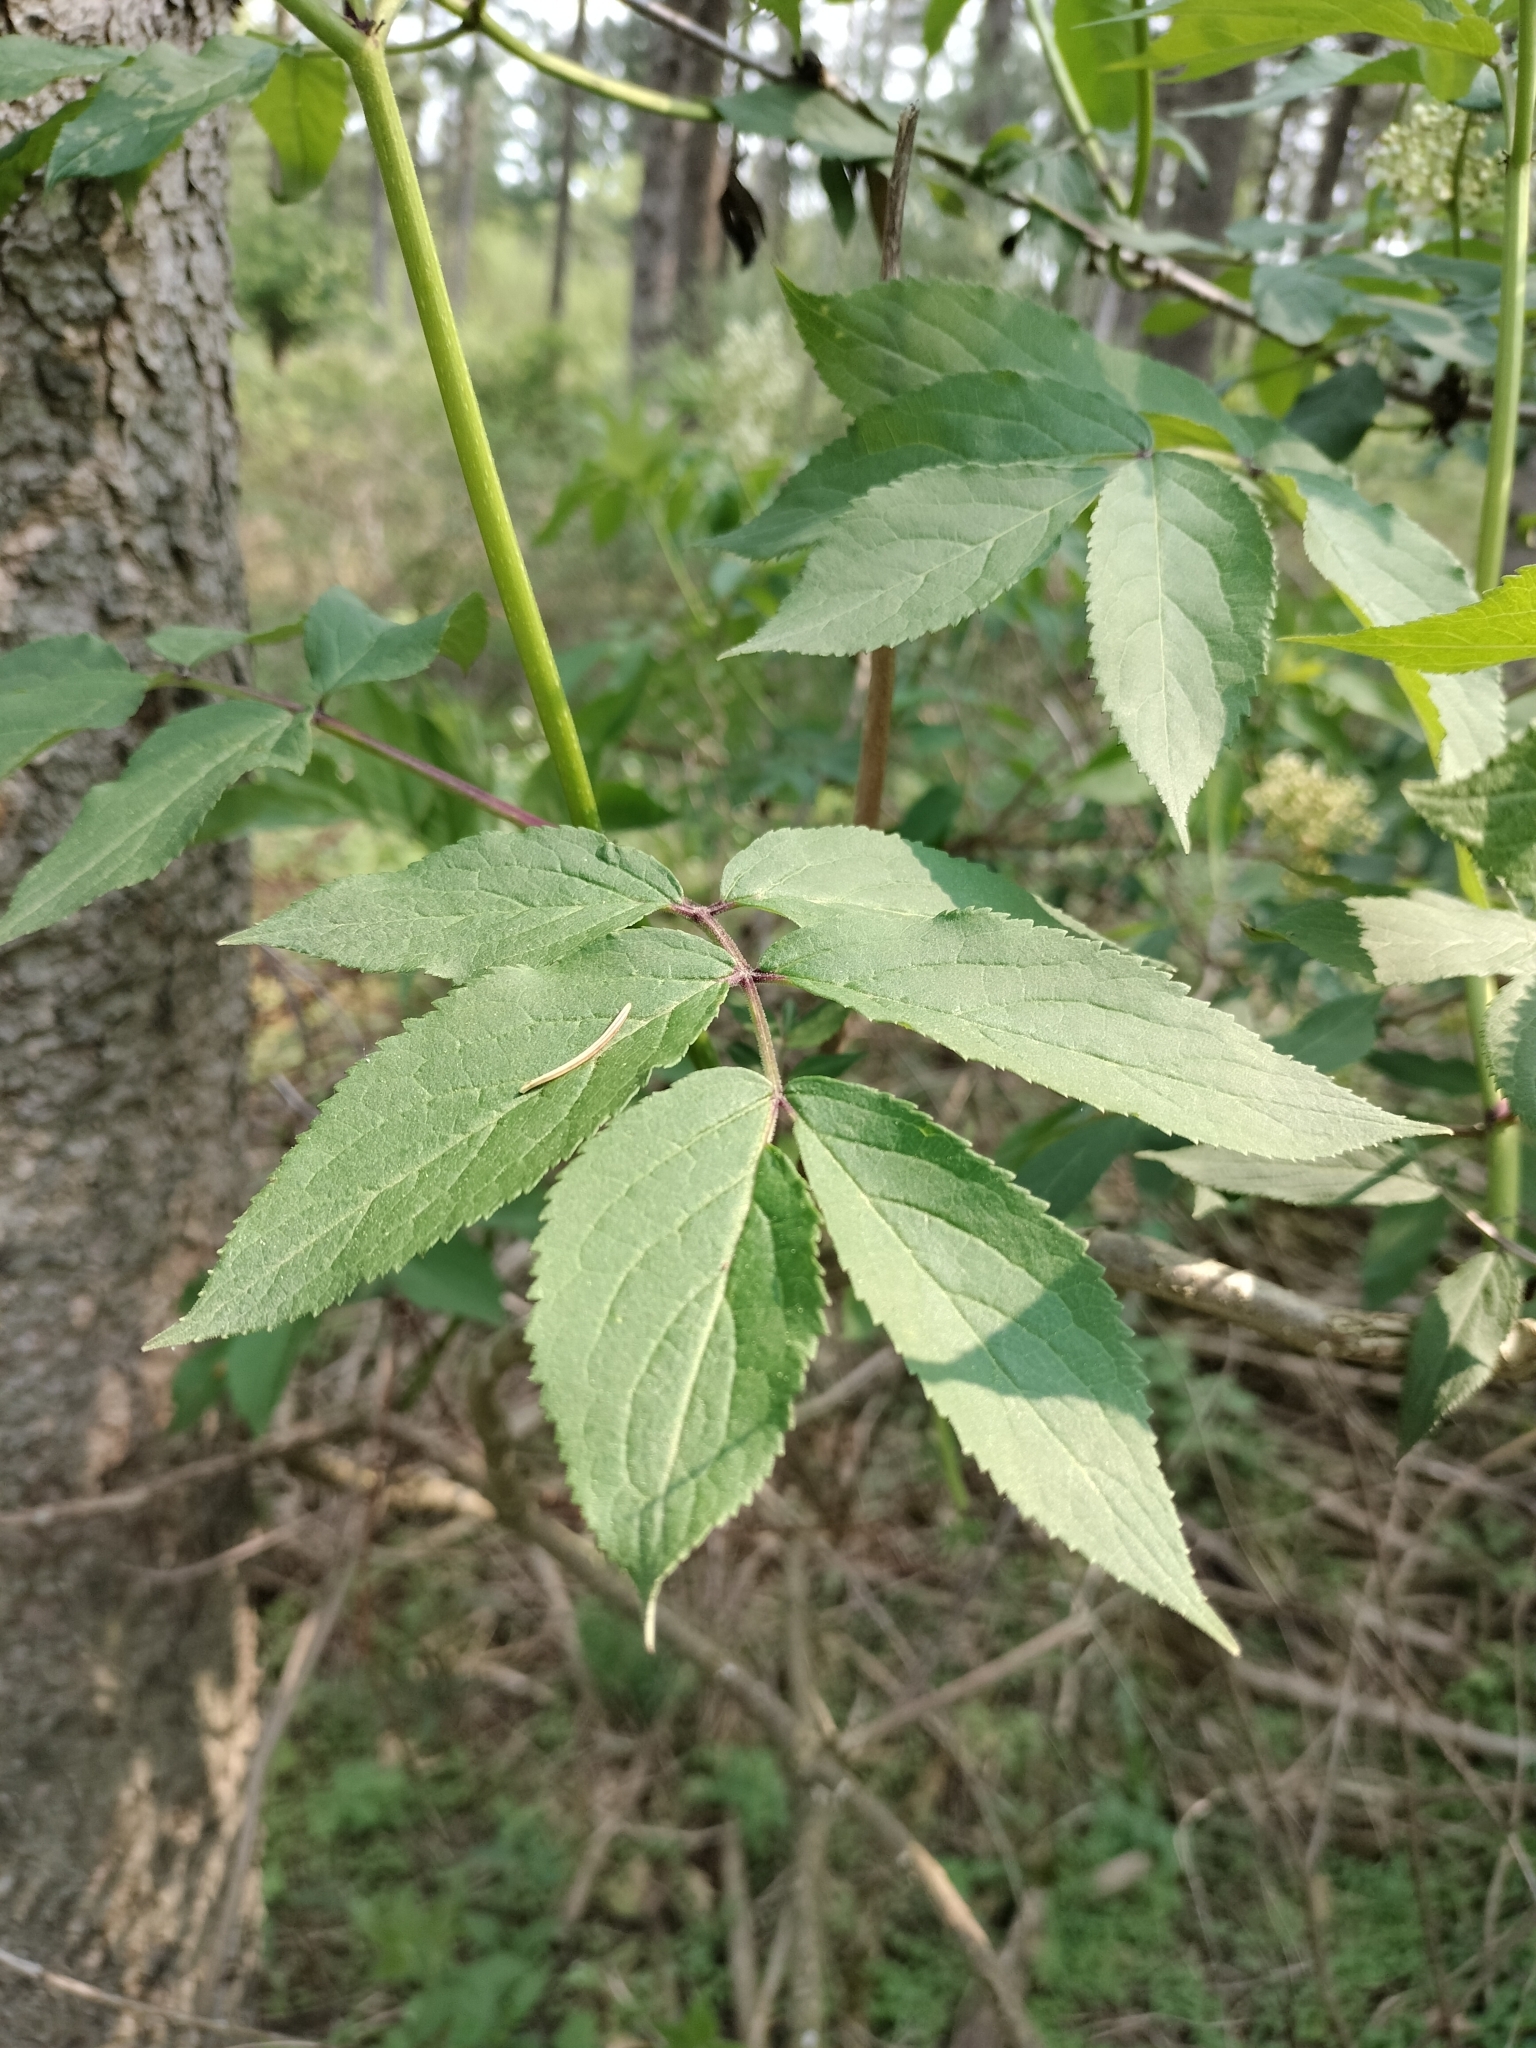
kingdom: Plantae
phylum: Tracheophyta
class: Magnoliopsida
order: Dipsacales
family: Viburnaceae
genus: Sambucus
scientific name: Sambucus racemosa
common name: Red-berried elder
